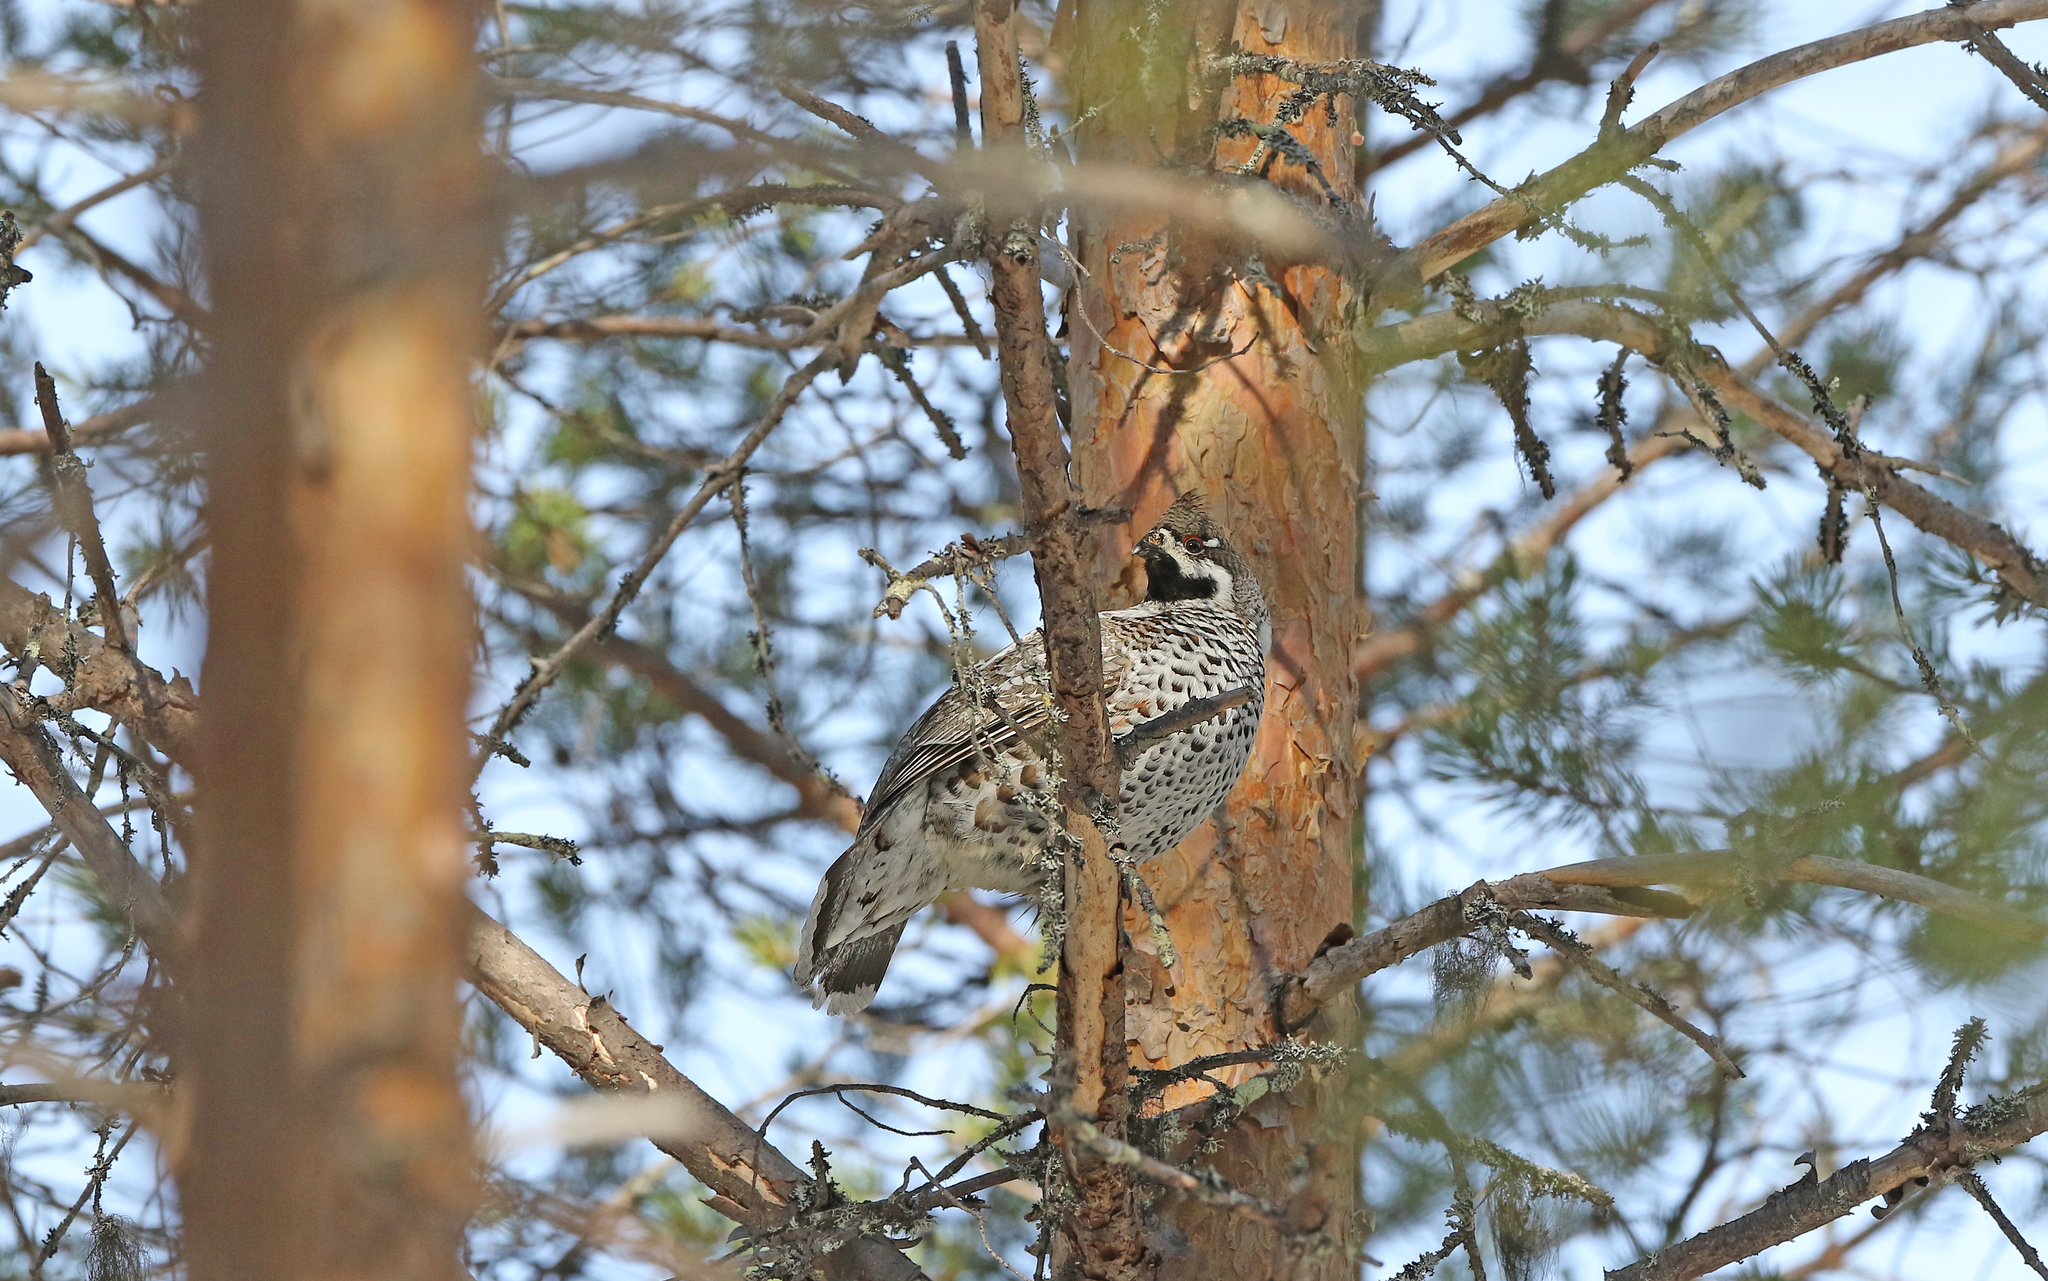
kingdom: Animalia
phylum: Chordata
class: Aves
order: Galliformes
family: Phasianidae
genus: Tetrastes
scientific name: Tetrastes bonasia
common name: Hazel grouse
